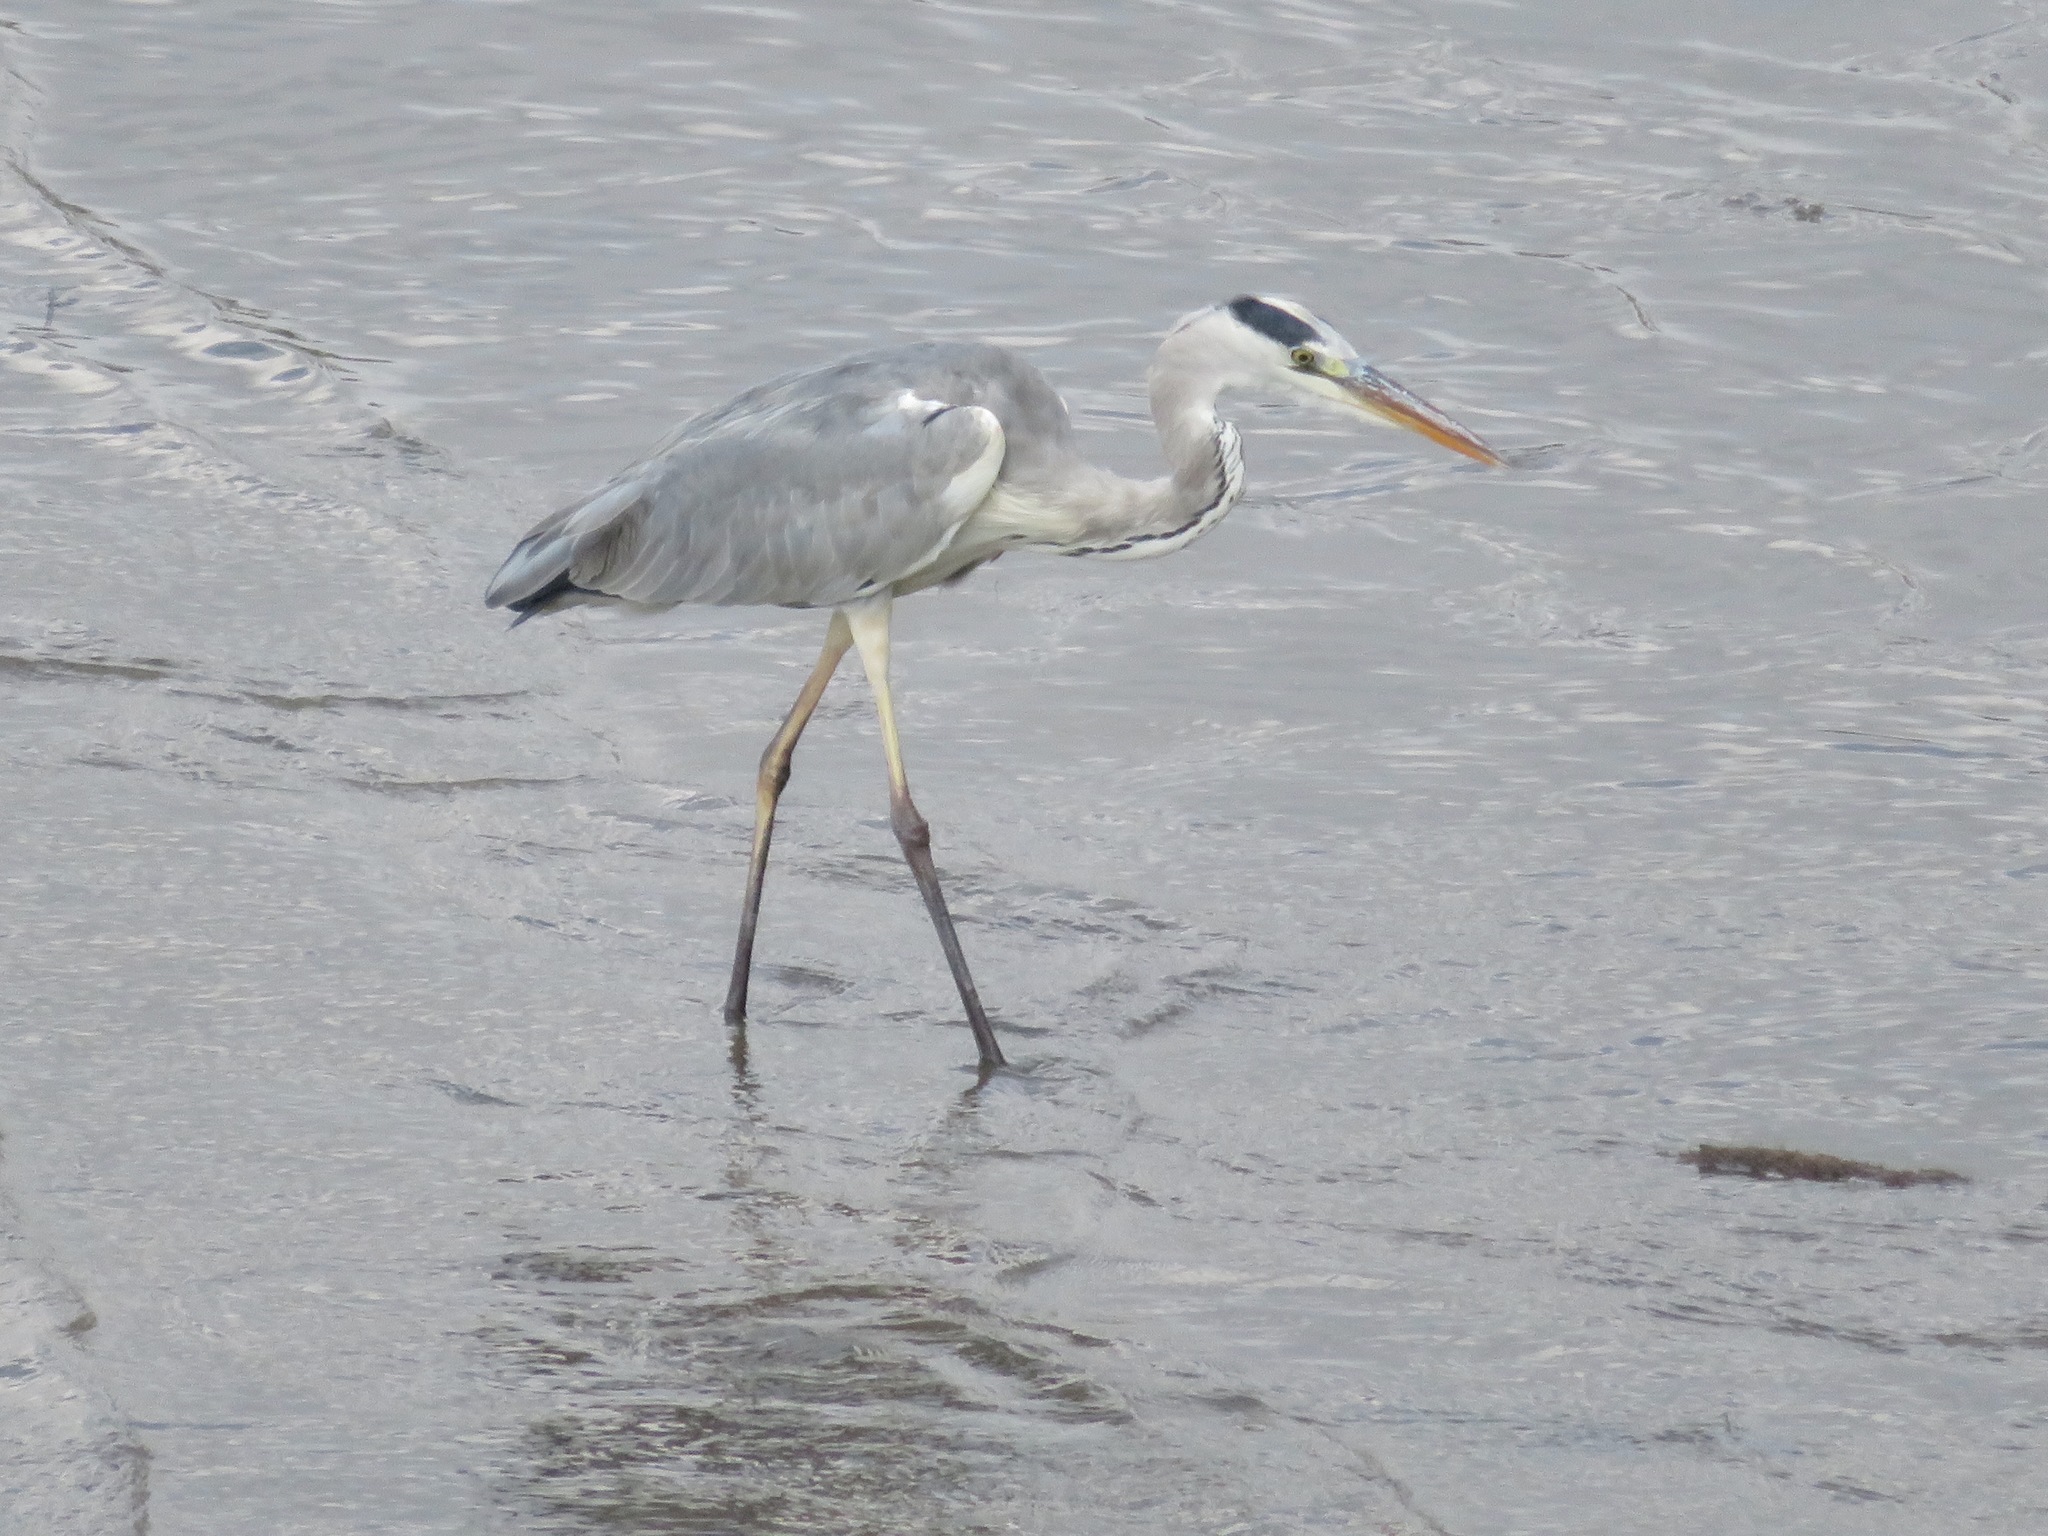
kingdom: Animalia
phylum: Chordata
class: Aves
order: Pelecaniformes
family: Ardeidae
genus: Ardea
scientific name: Ardea cinerea
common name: Grey heron
